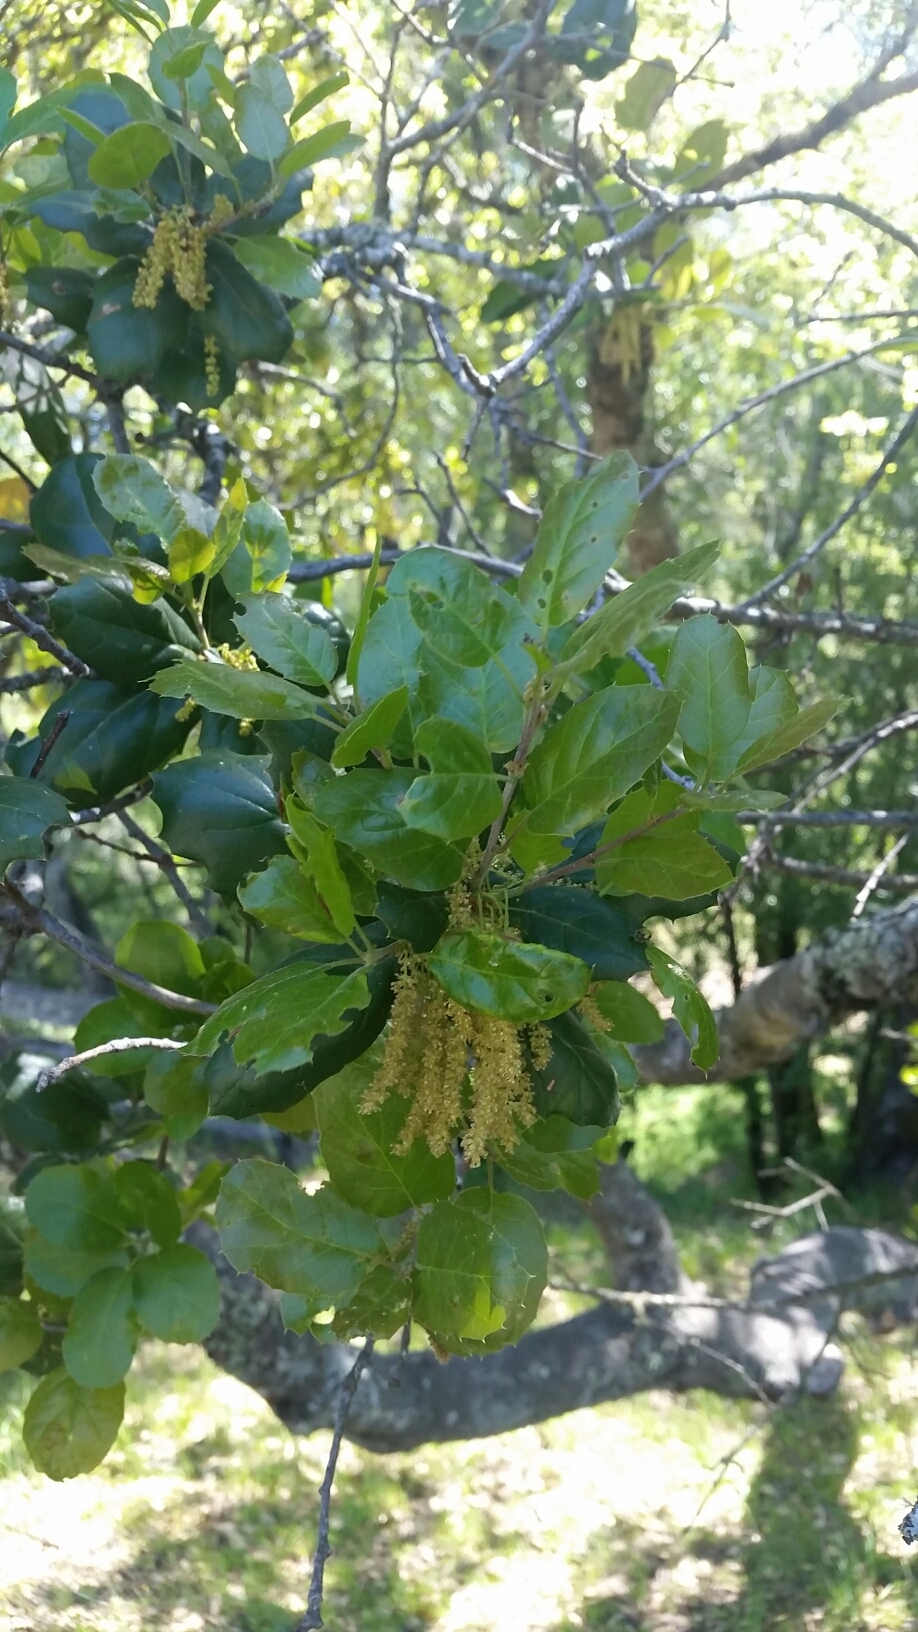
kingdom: Plantae
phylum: Tracheophyta
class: Magnoliopsida
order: Fagales
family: Fagaceae
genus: Quercus
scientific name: Quercus agrifolia
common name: California live oak
